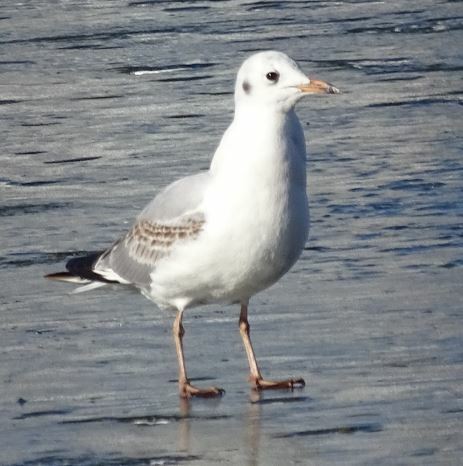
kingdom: Animalia
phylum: Chordata
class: Aves
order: Charadriiformes
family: Laridae
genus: Chroicocephalus
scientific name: Chroicocephalus ridibundus
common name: Black-headed gull
